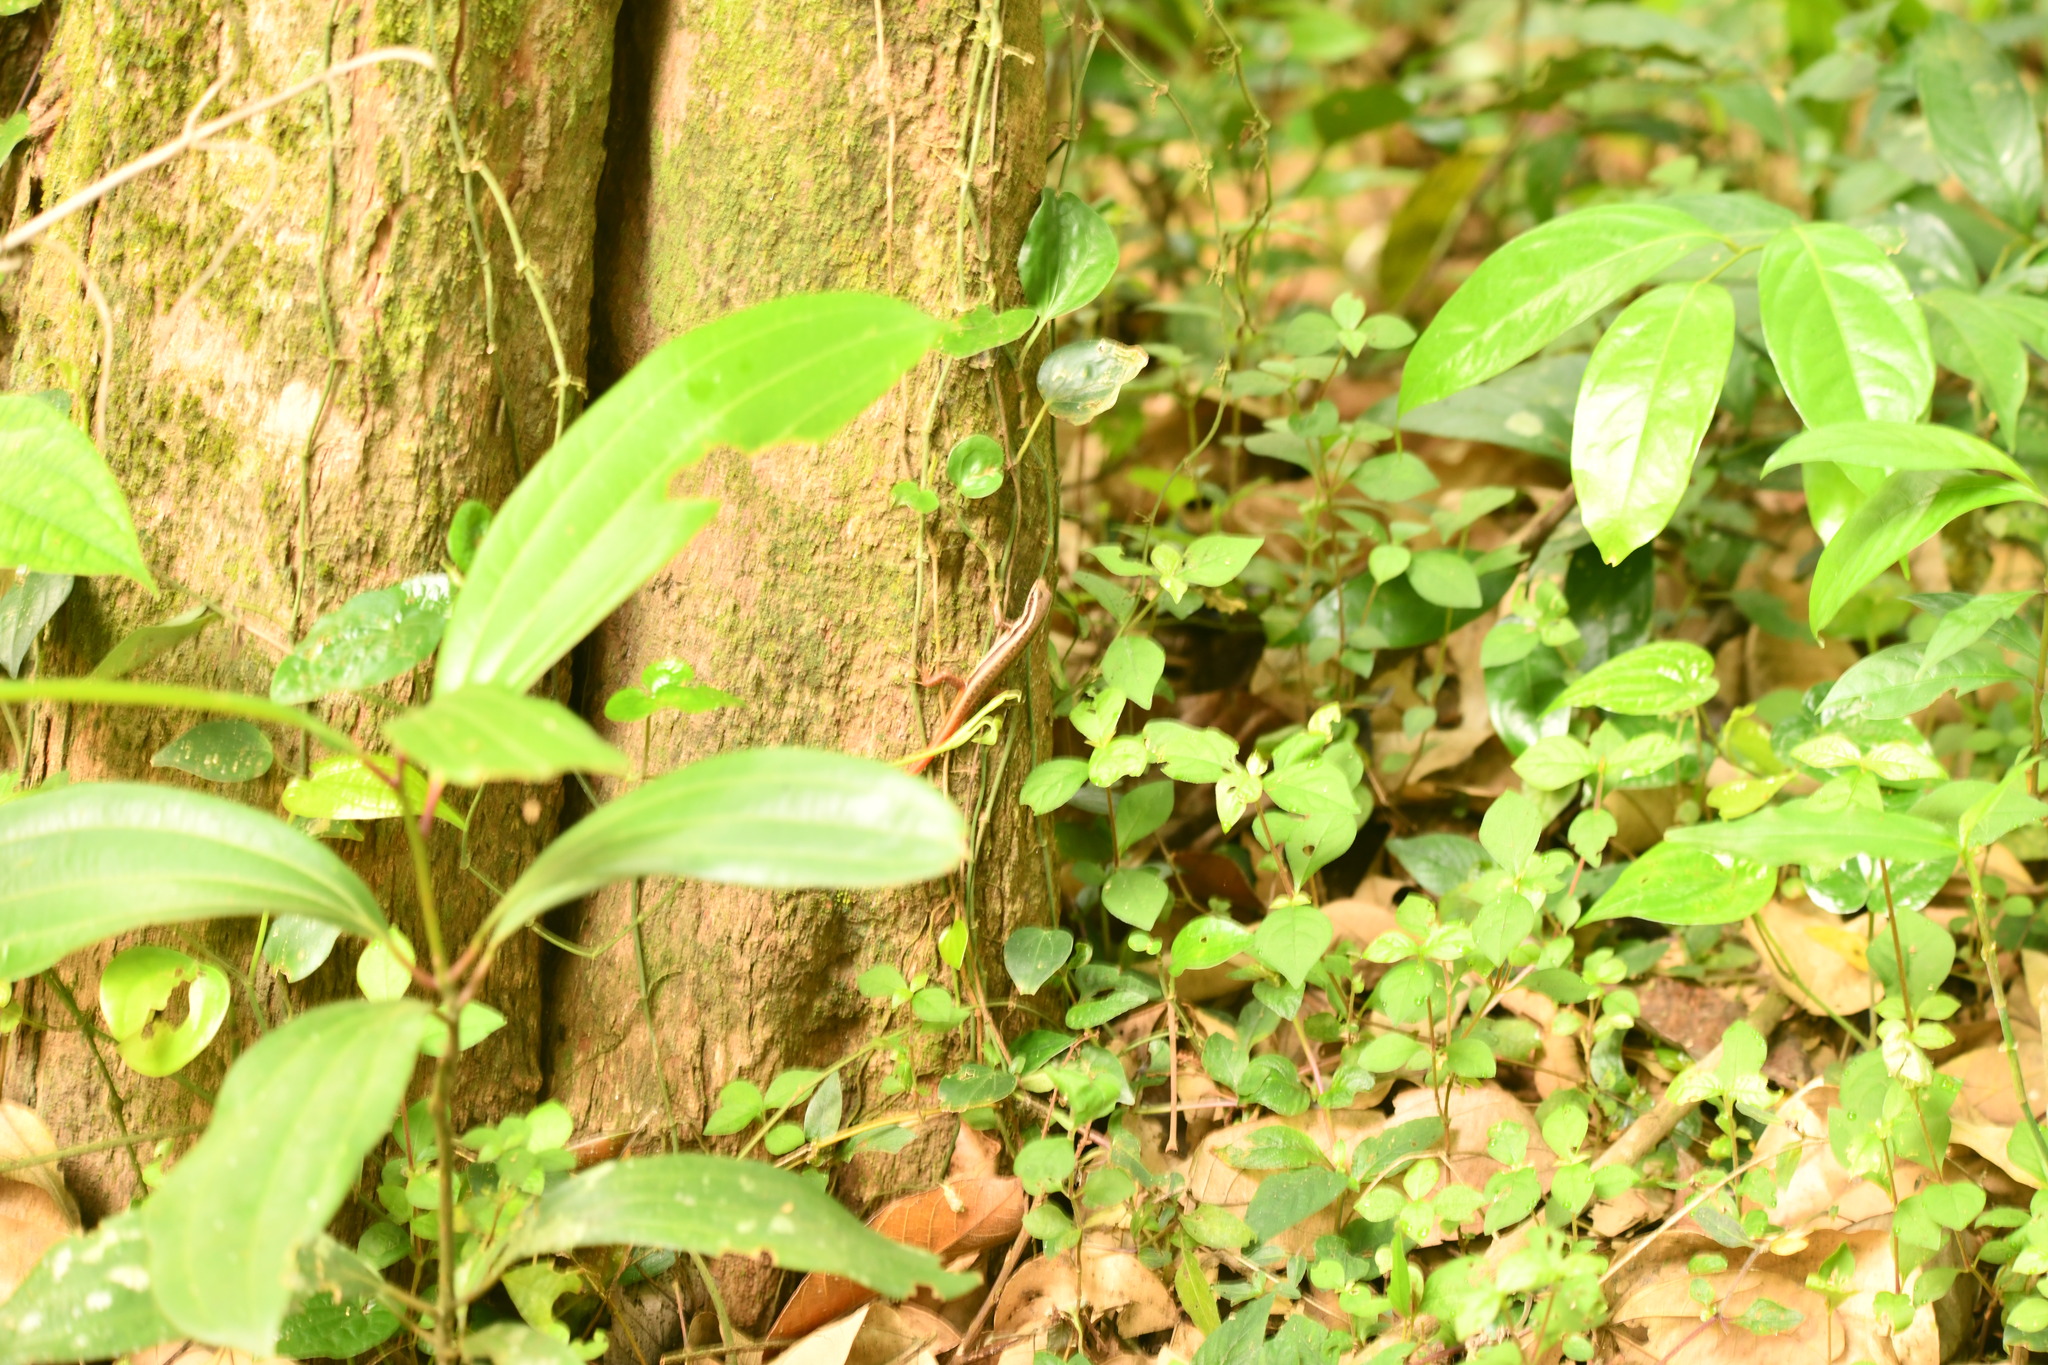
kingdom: Animalia
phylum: Chordata
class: Squamata
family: Scincidae
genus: Sphenomorphus
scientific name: Sphenomorphus dussumieri
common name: Dussumier's forest skink
